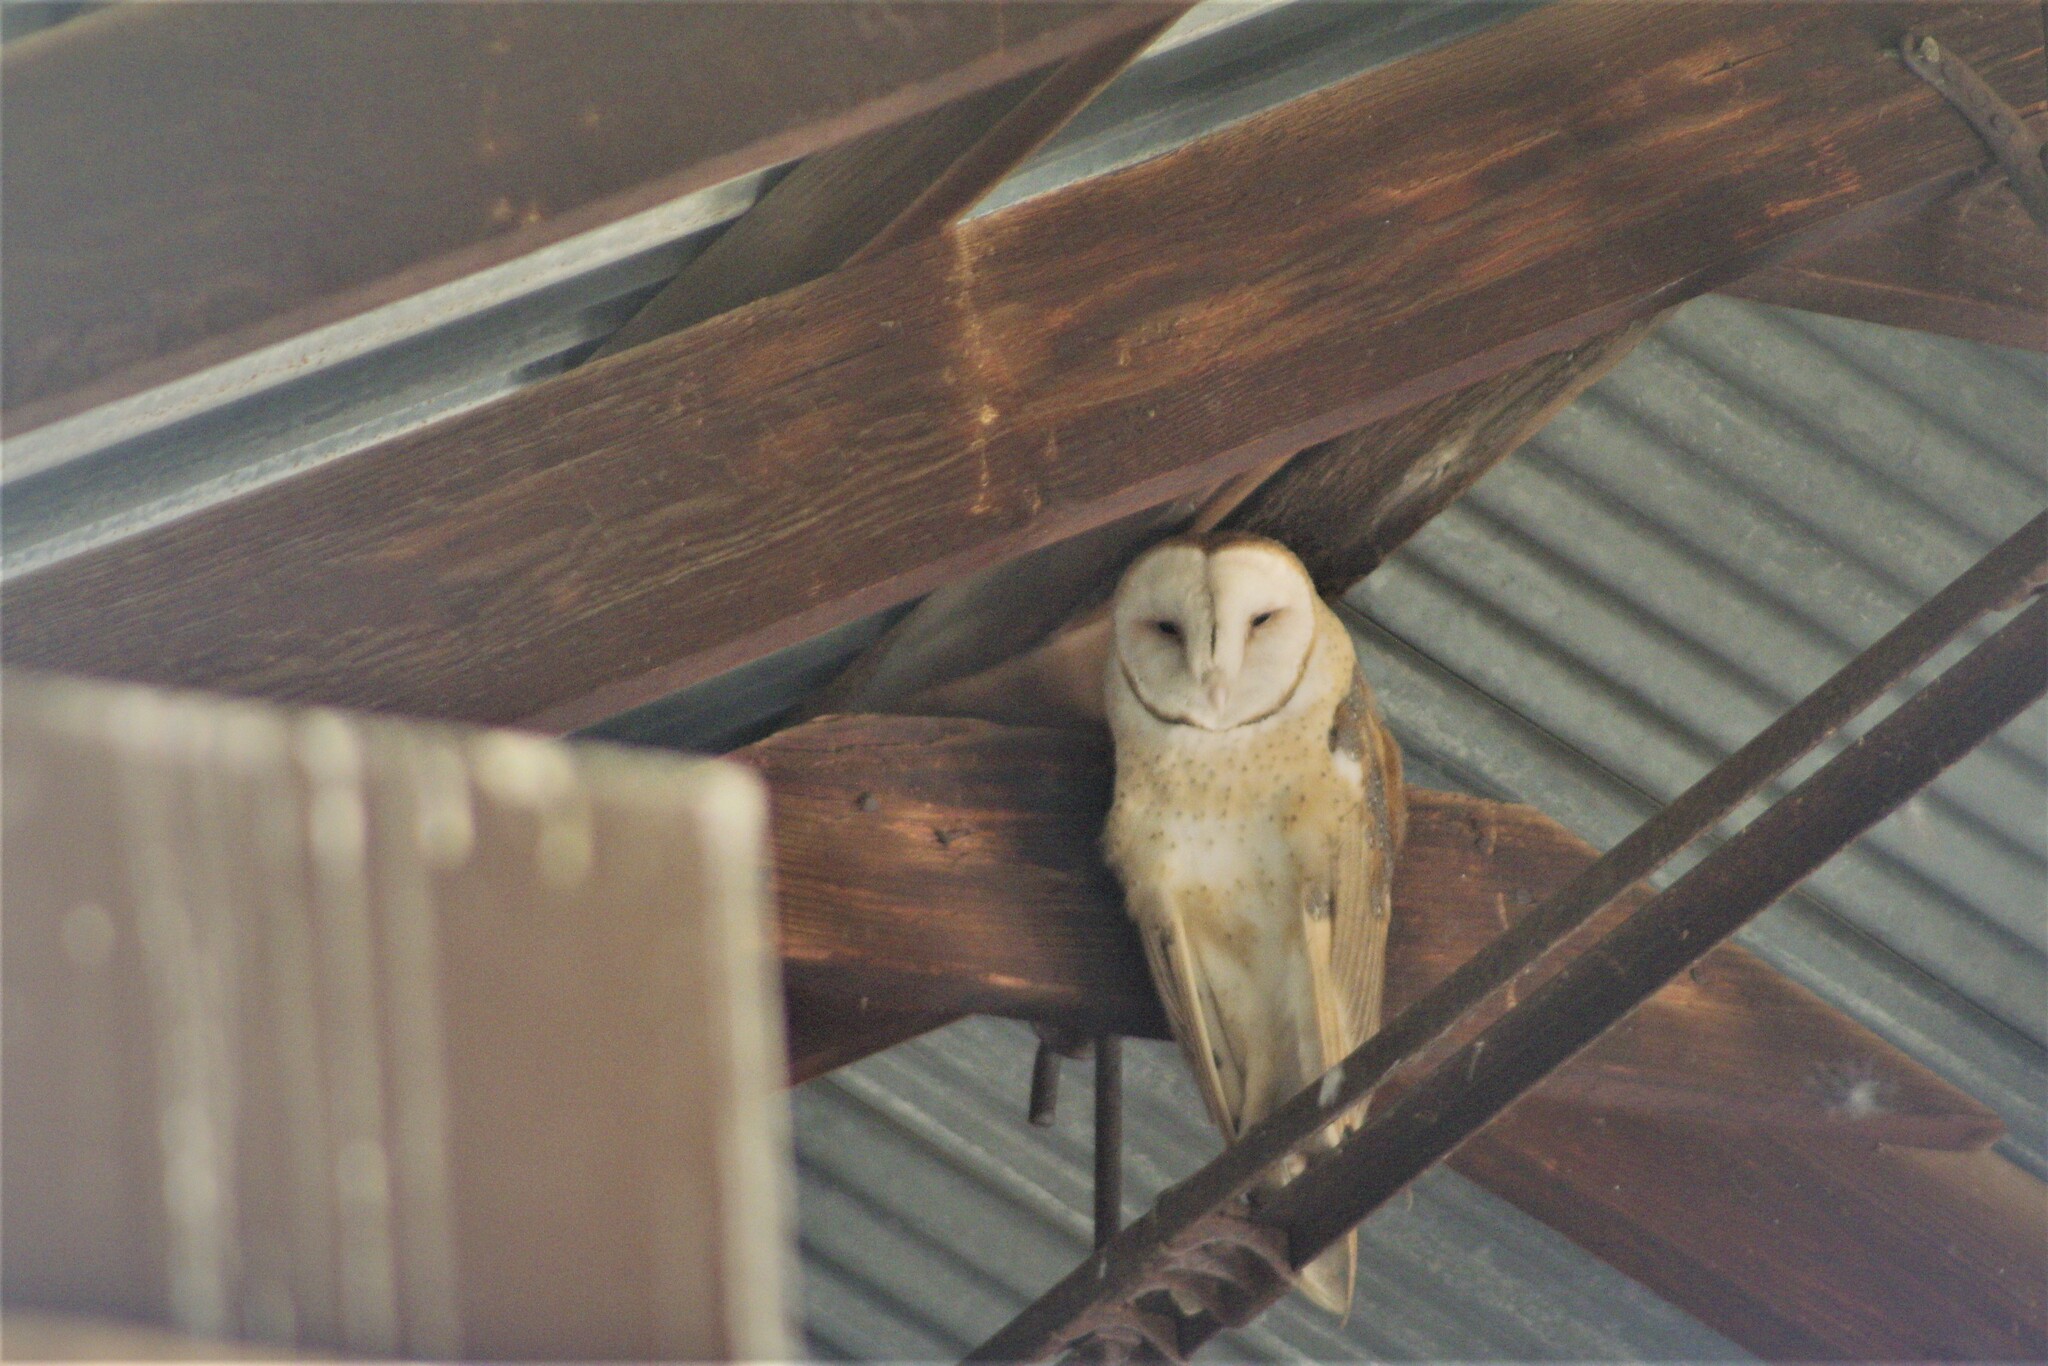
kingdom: Animalia
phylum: Chordata
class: Aves
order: Strigiformes
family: Tytonidae
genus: Tyto
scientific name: Tyto alba
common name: Barn owl
